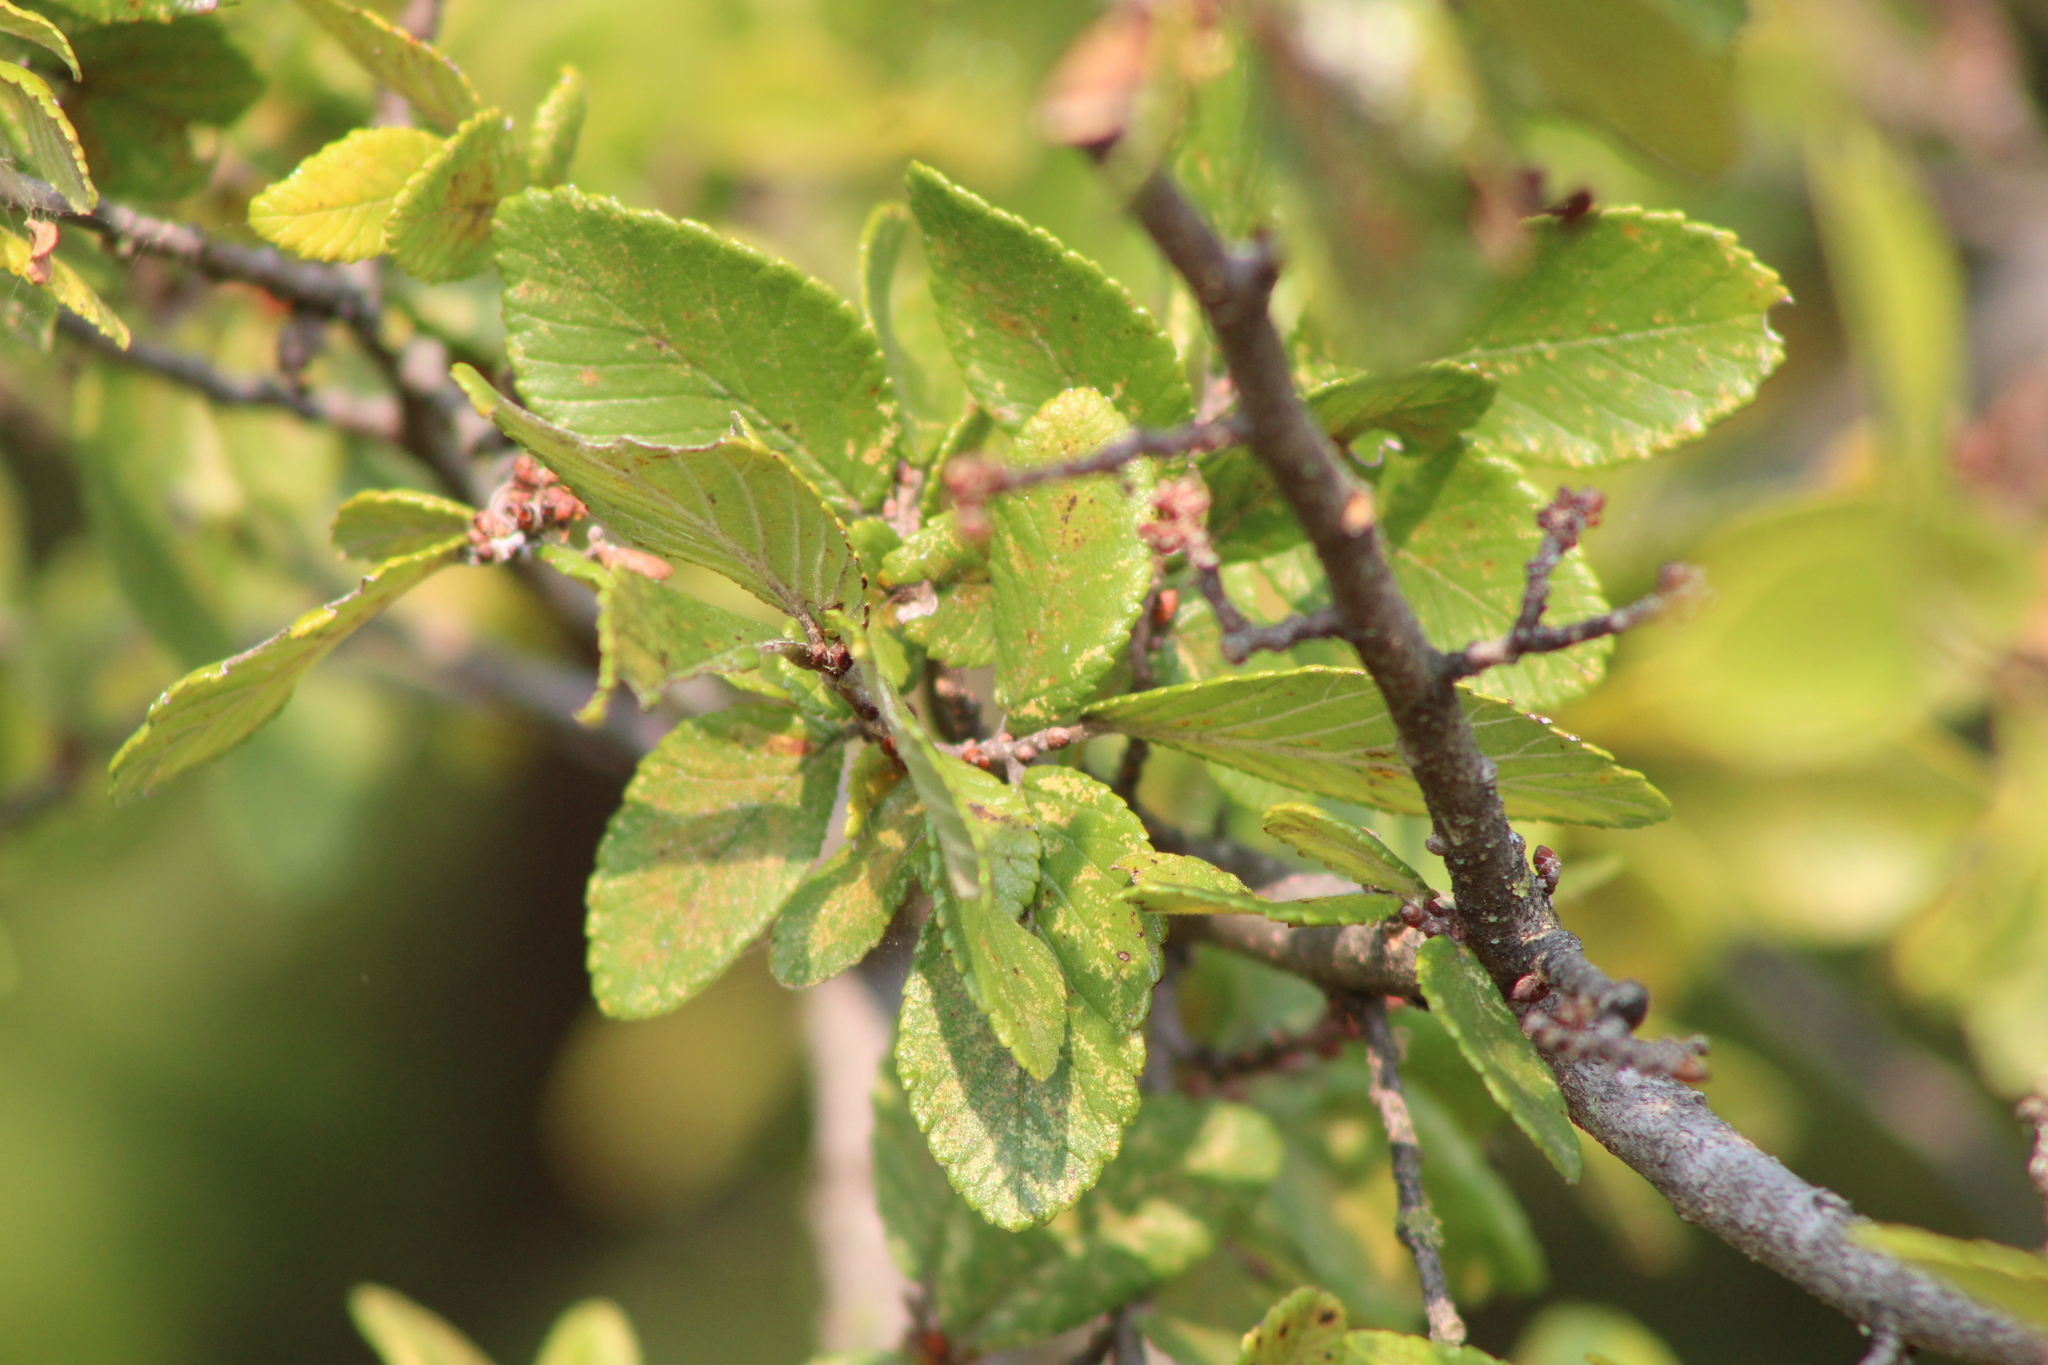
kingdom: Plantae
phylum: Tracheophyta
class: Magnoliopsida
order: Rosales
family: Ulmaceae
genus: Ulmus
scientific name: Ulmus crassifolia
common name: Basket elm
